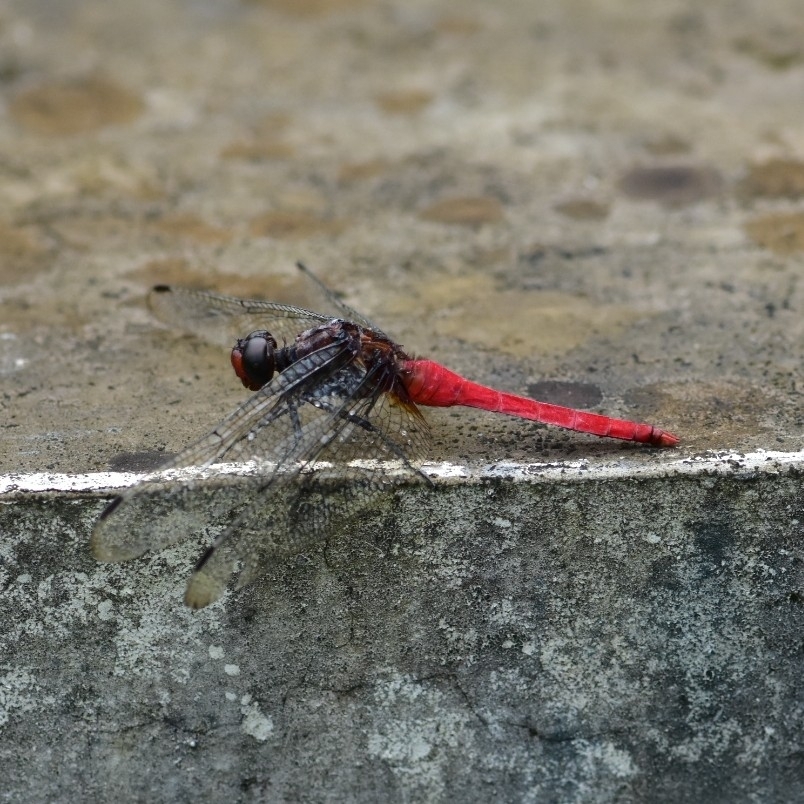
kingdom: Animalia
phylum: Arthropoda
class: Insecta
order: Odonata
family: Libellulidae
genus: Orthetrum
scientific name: Orthetrum chrysis
